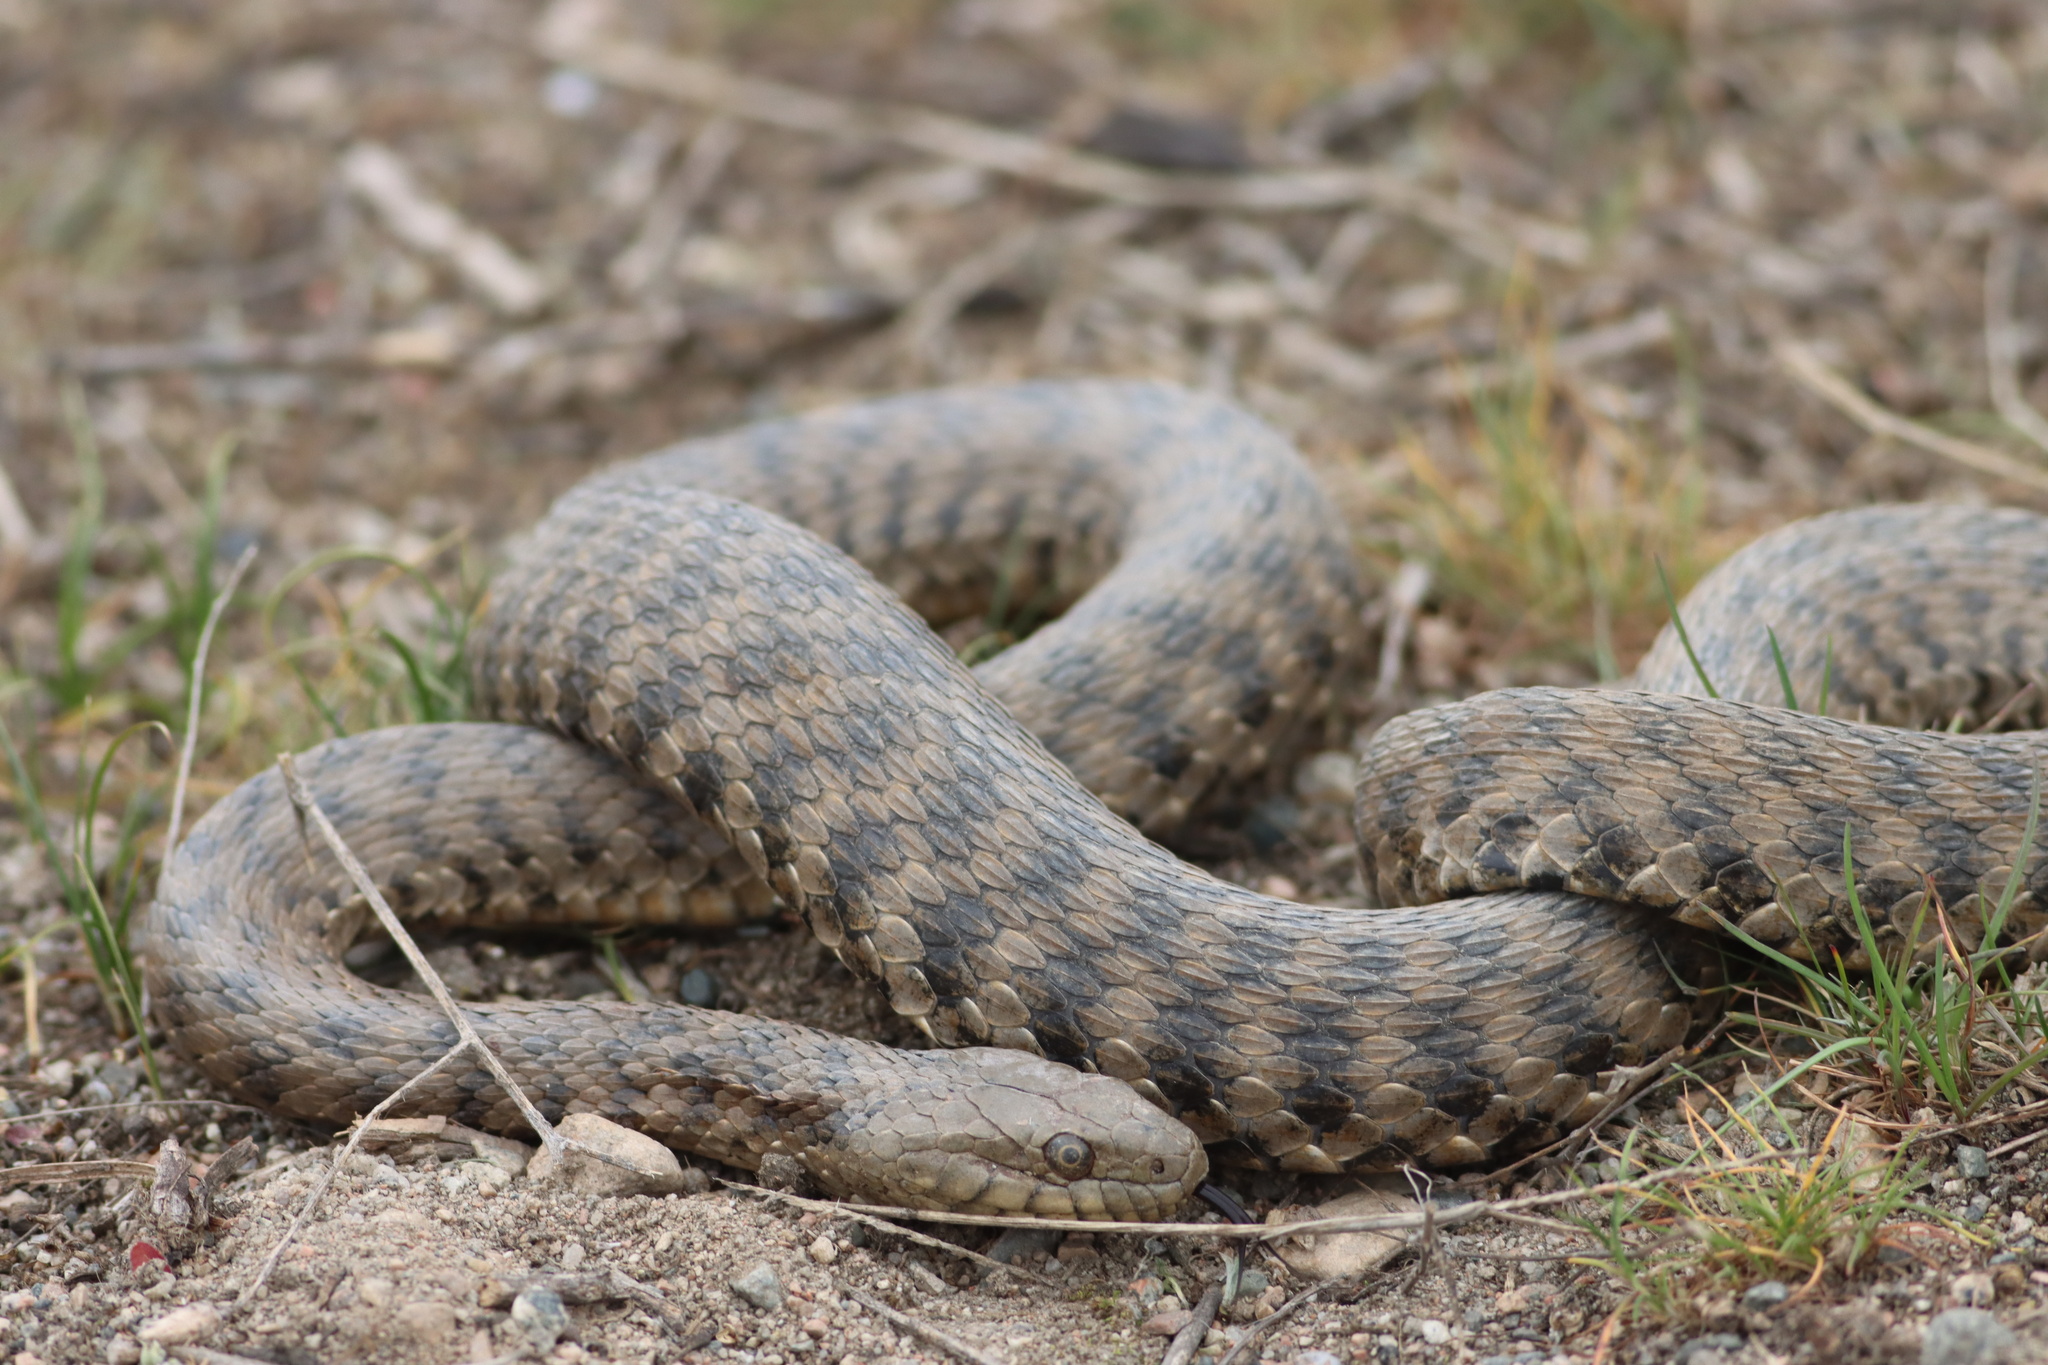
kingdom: Animalia
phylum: Chordata
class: Squamata
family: Colubridae
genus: Natrix
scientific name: Natrix tessellata
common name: Dice snake
